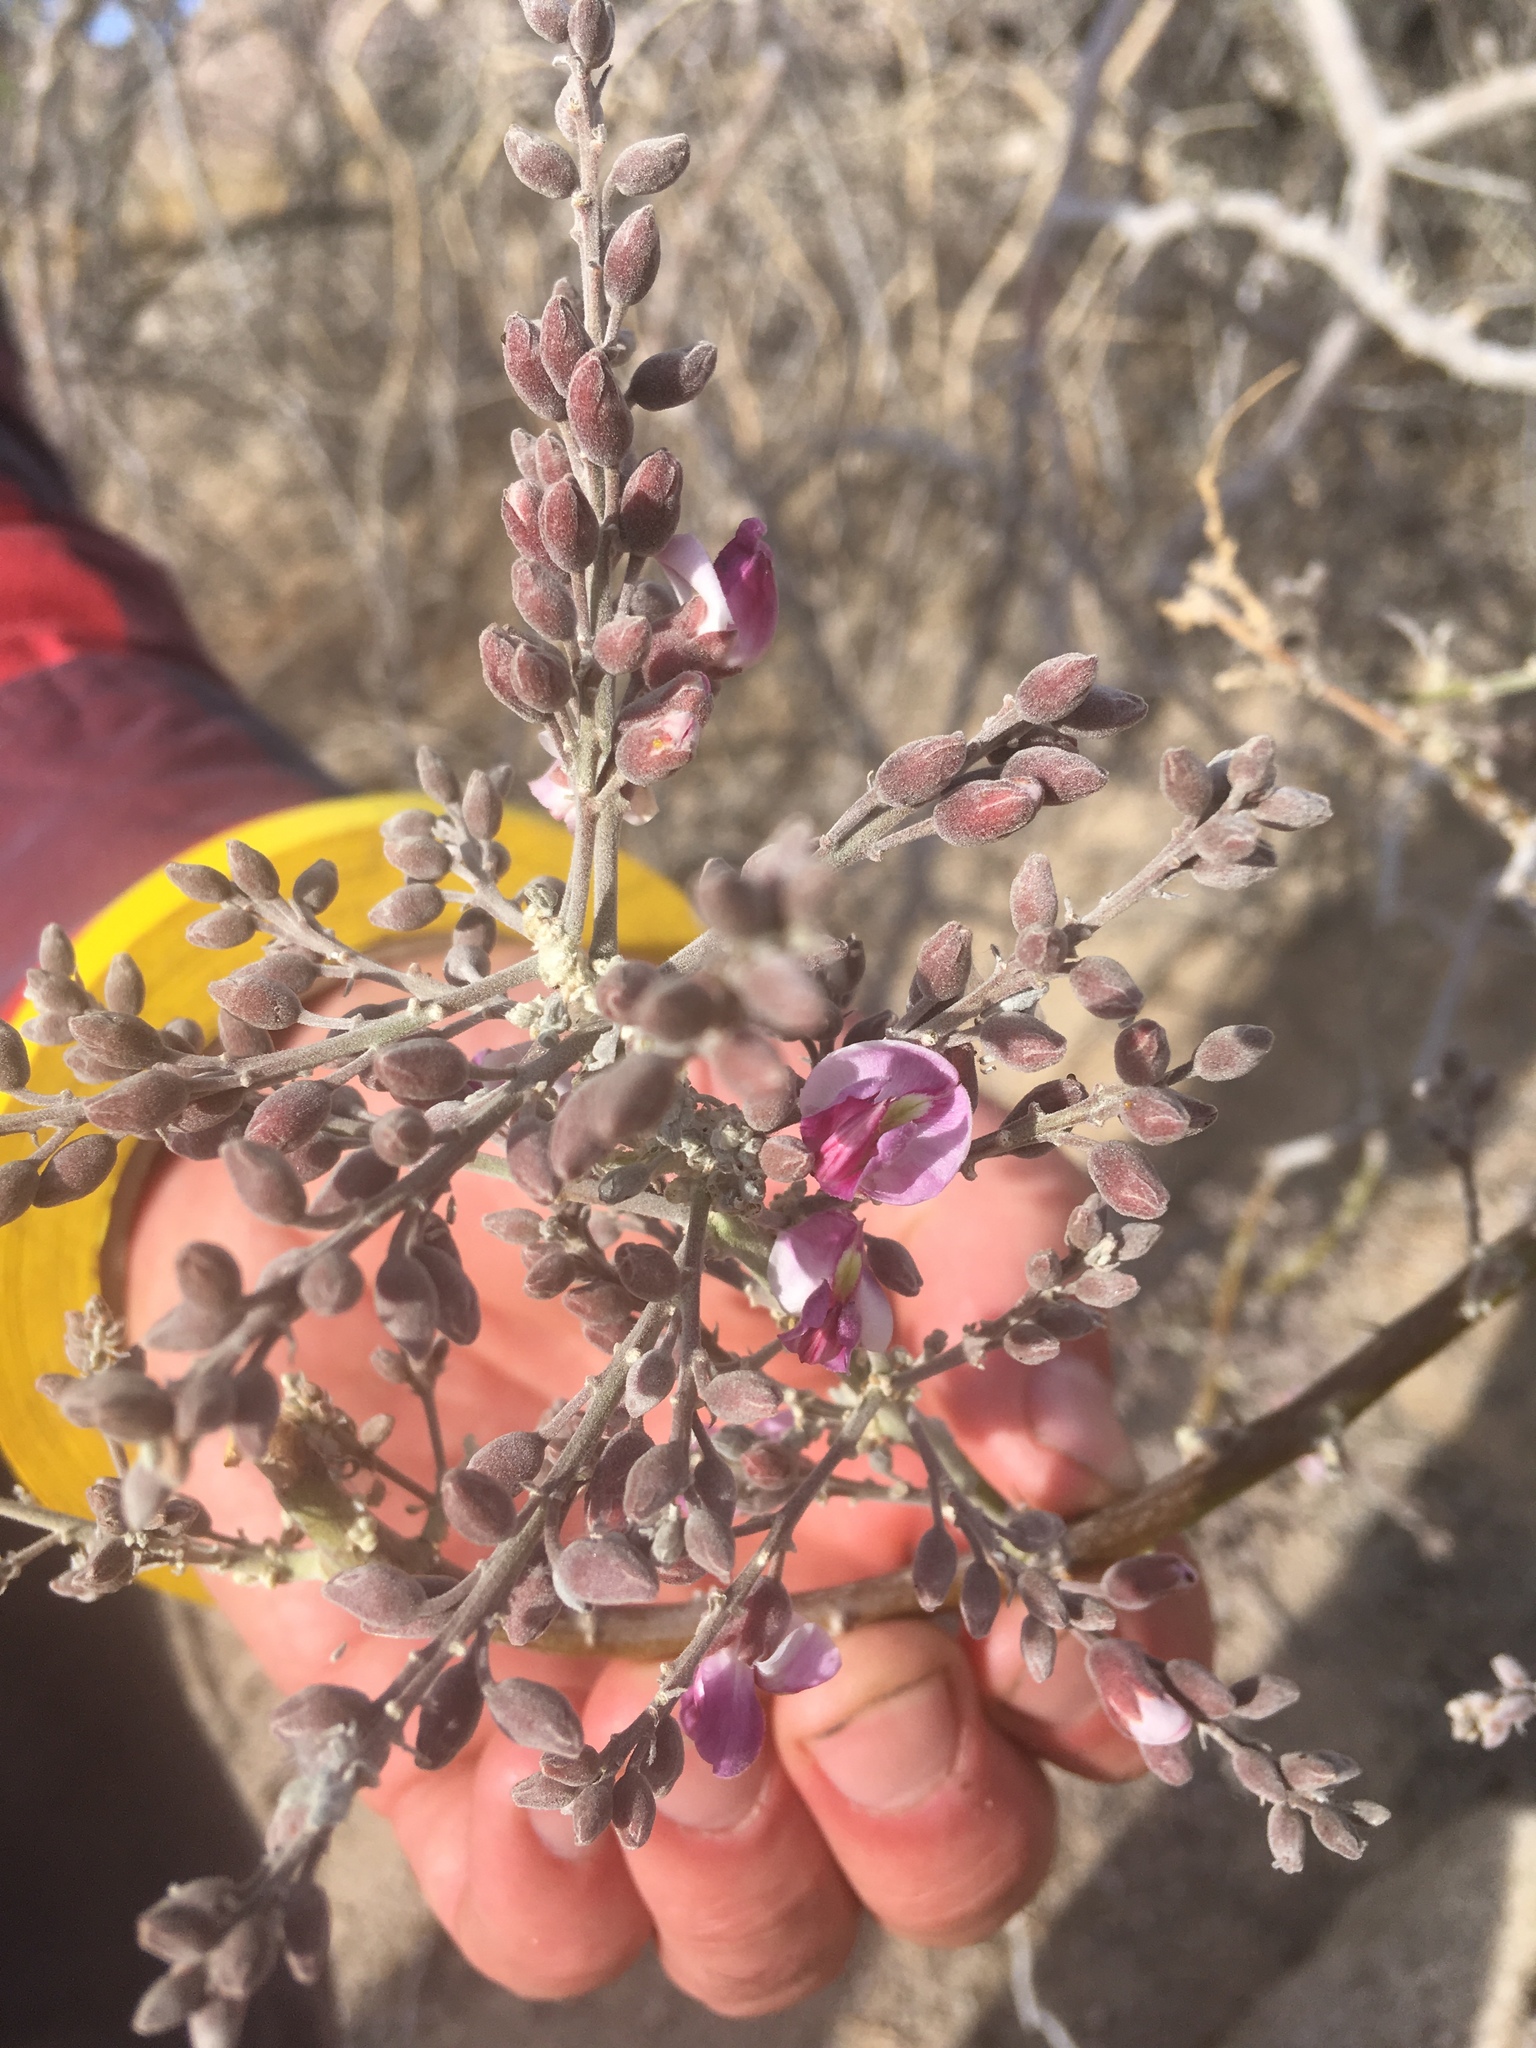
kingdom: Plantae
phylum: Tracheophyta
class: Magnoliopsida
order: Fabales
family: Fabaceae
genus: Olneya
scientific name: Olneya tesota
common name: Desert ironwood
